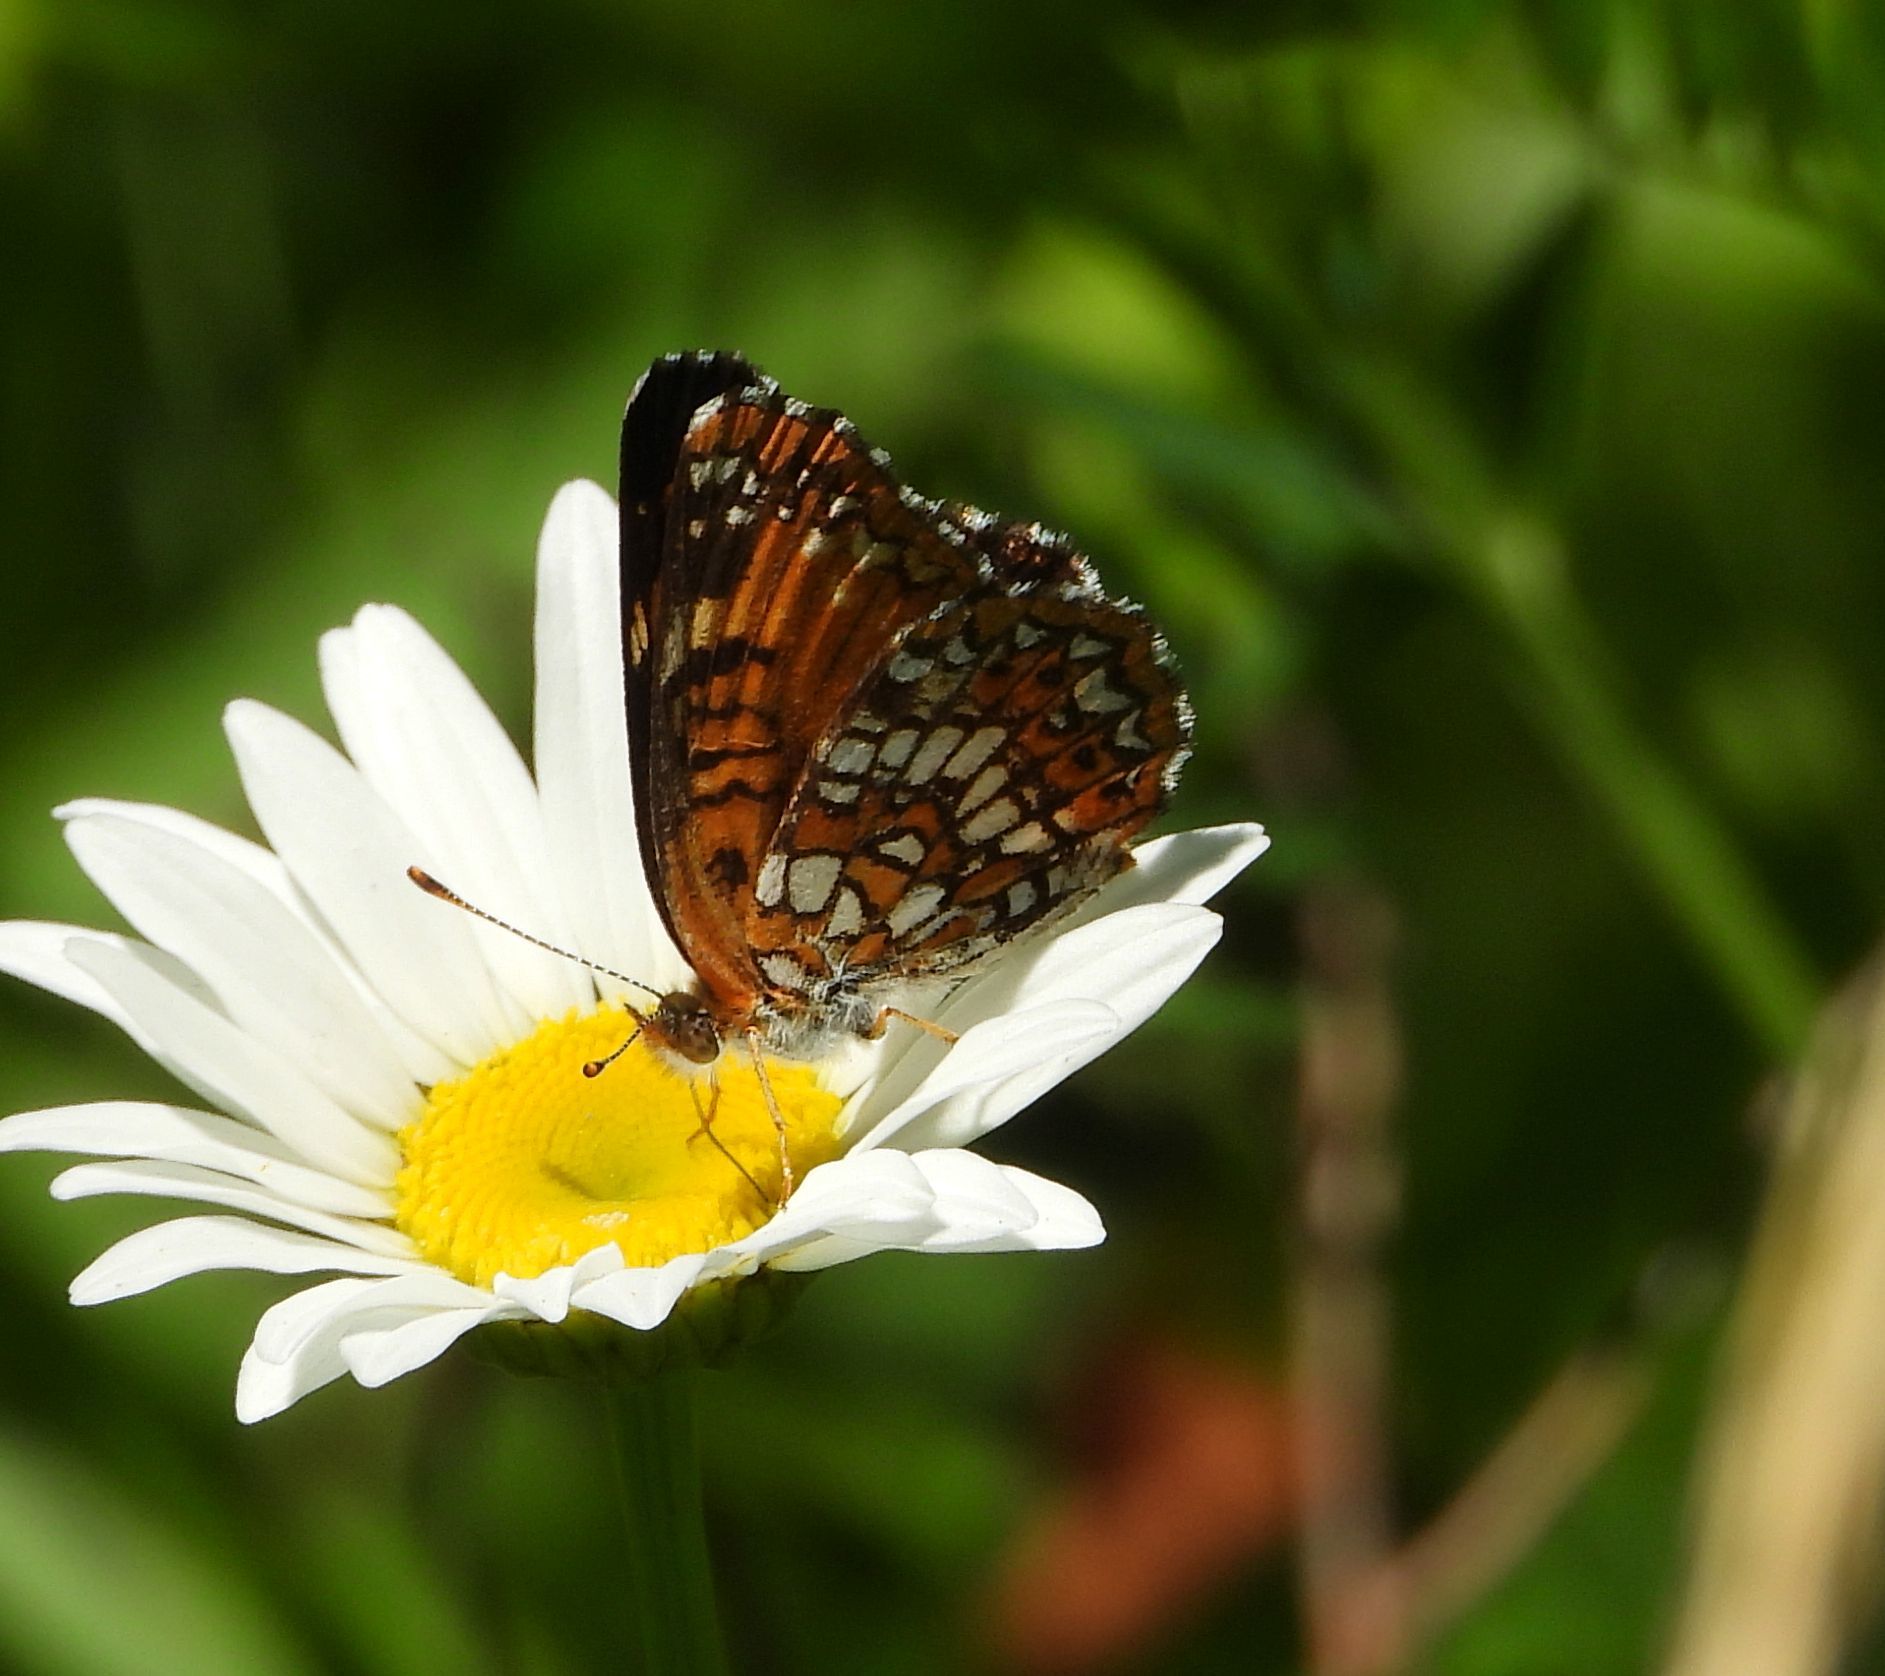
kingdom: Animalia
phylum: Arthropoda
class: Insecta
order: Lepidoptera
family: Nymphalidae
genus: Chlosyne
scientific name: Chlosyne harrisii
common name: Harris's checkerspot
